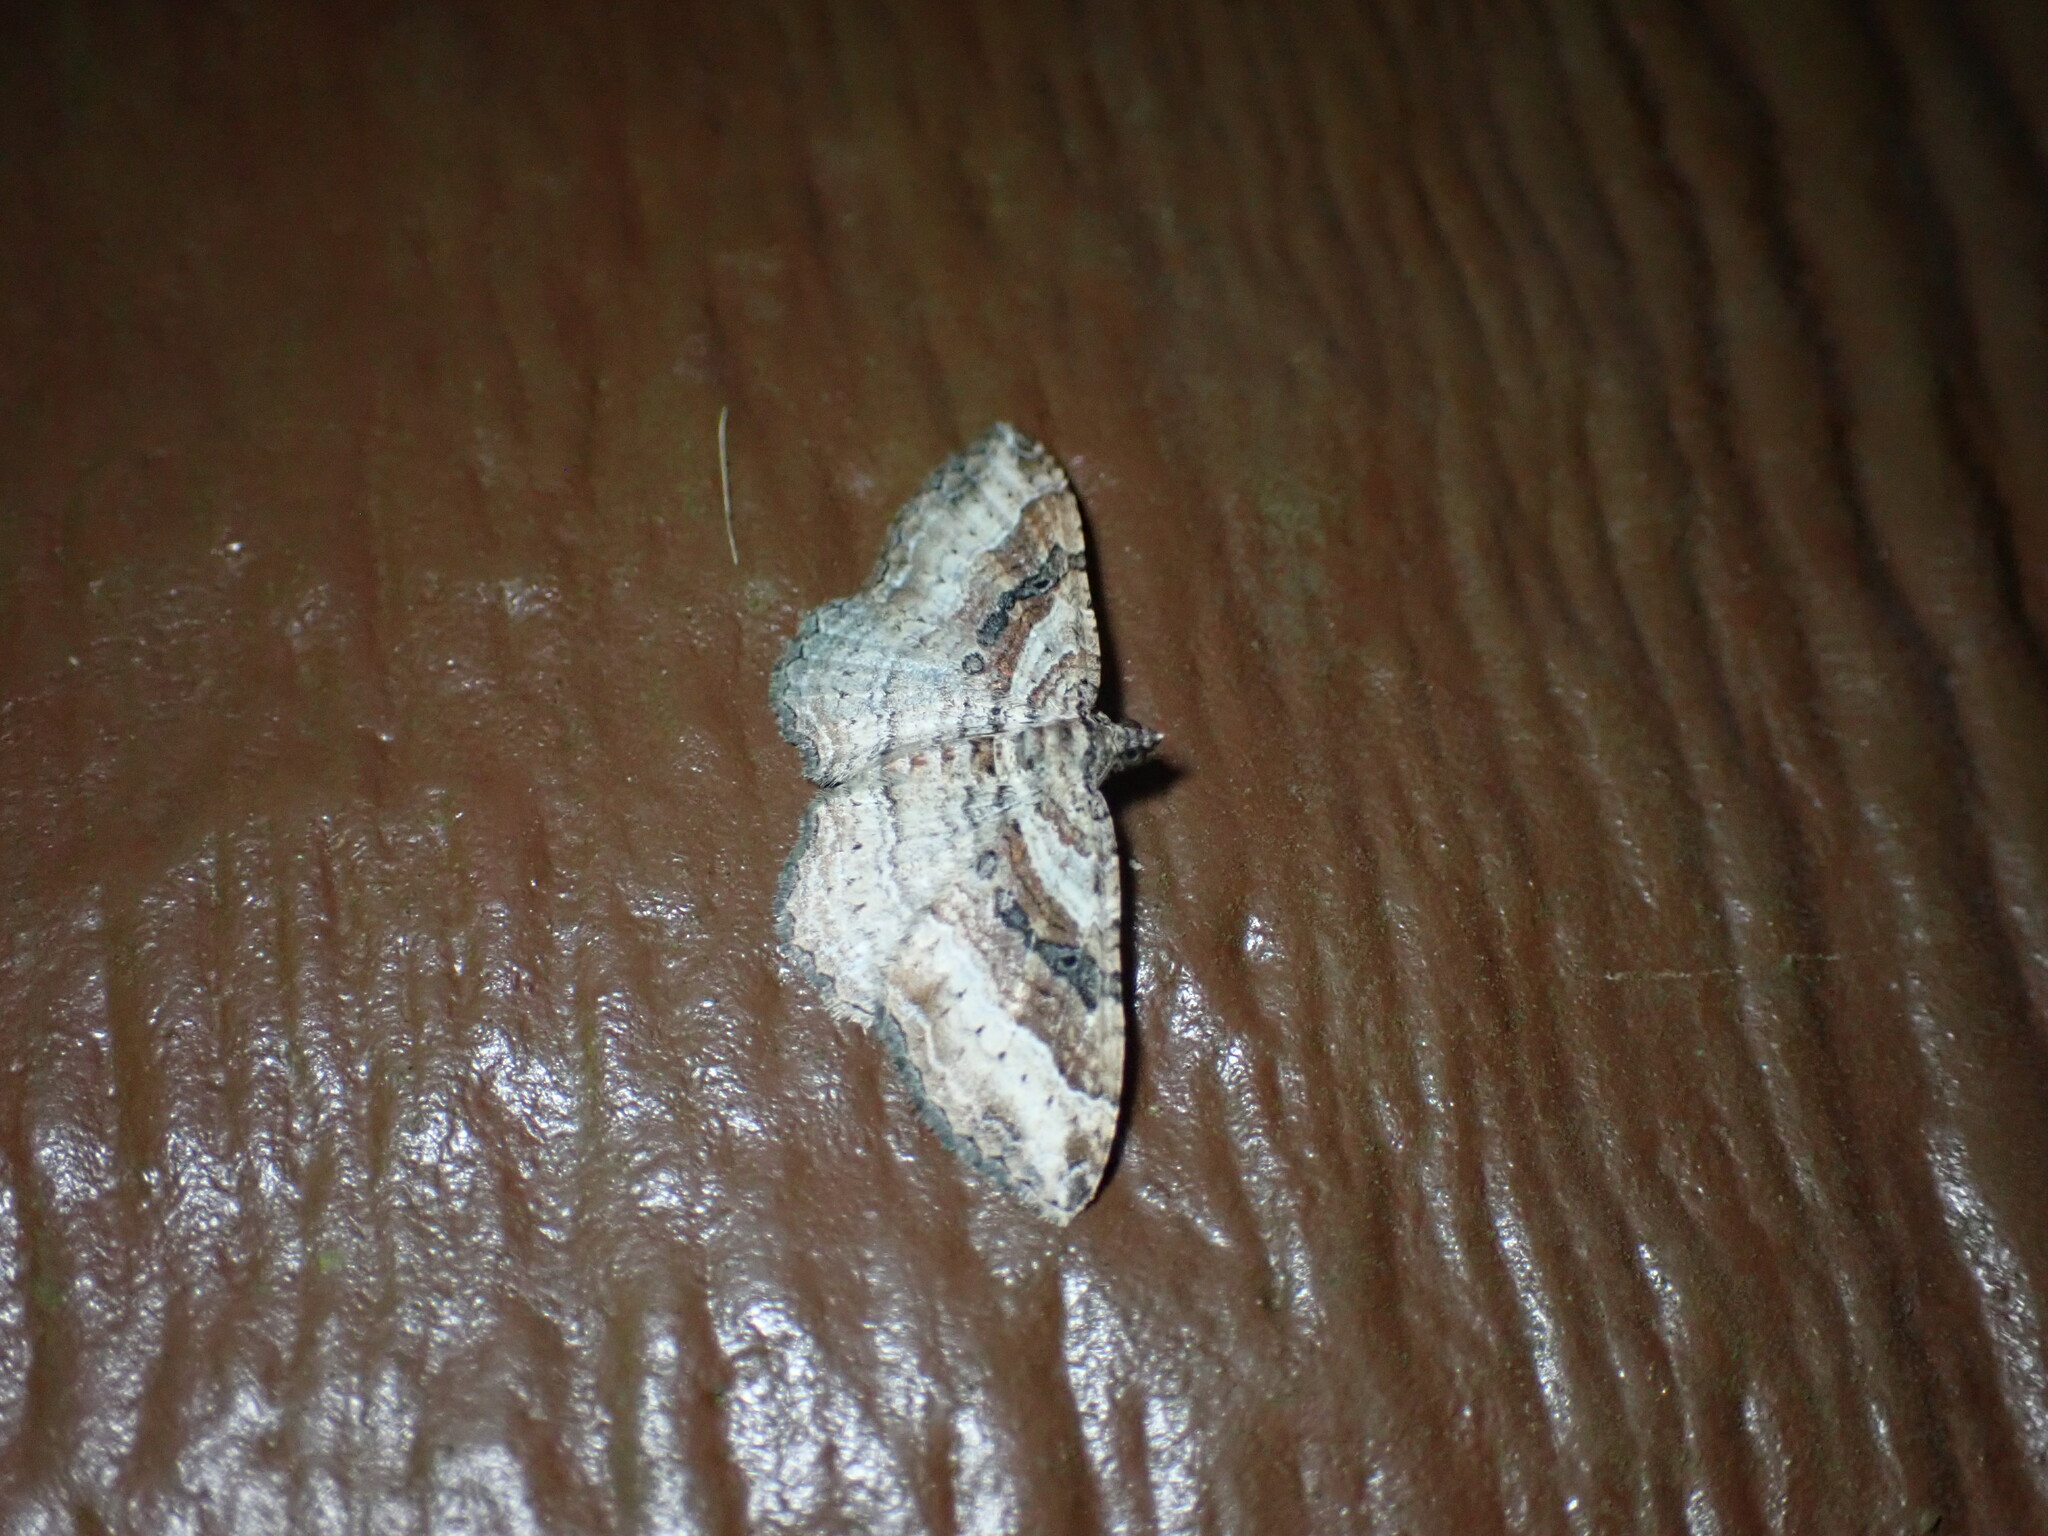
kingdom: Animalia
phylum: Arthropoda
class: Insecta
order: Lepidoptera
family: Geometridae
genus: Costaconvexa
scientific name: Costaconvexa centrostrigaria
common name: Bent-line carpet
